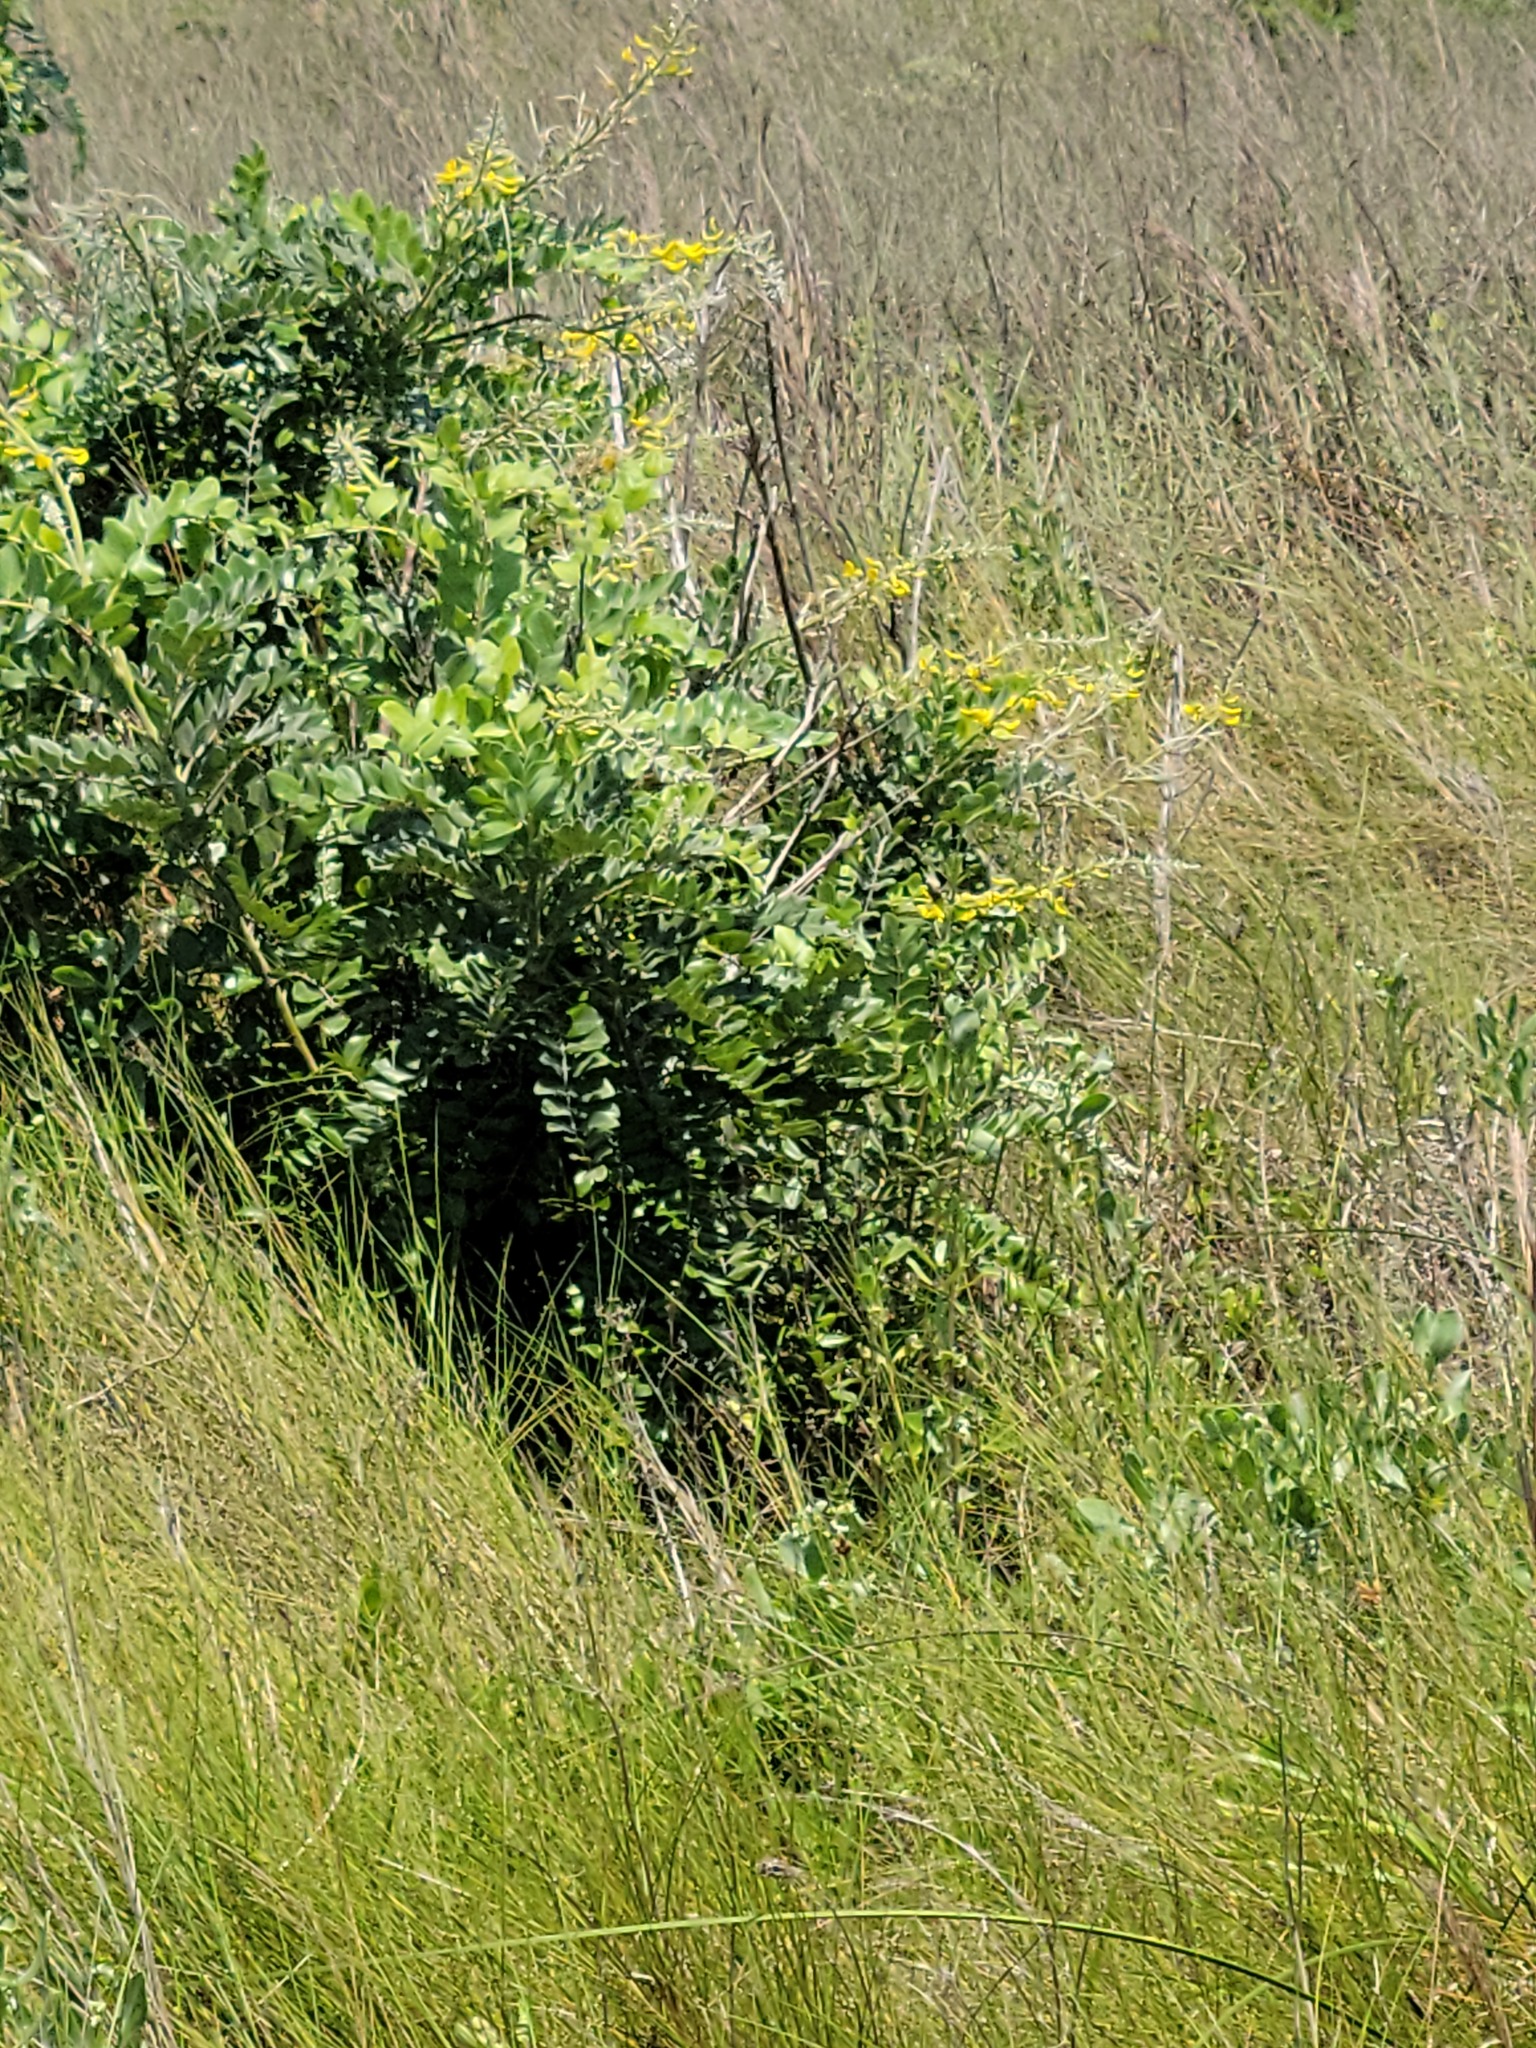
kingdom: Plantae
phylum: Tracheophyta
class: Magnoliopsida
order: Fabales
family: Fabaceae
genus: Sophora
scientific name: Sophora tomentosa
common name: Yellow necklacepod
